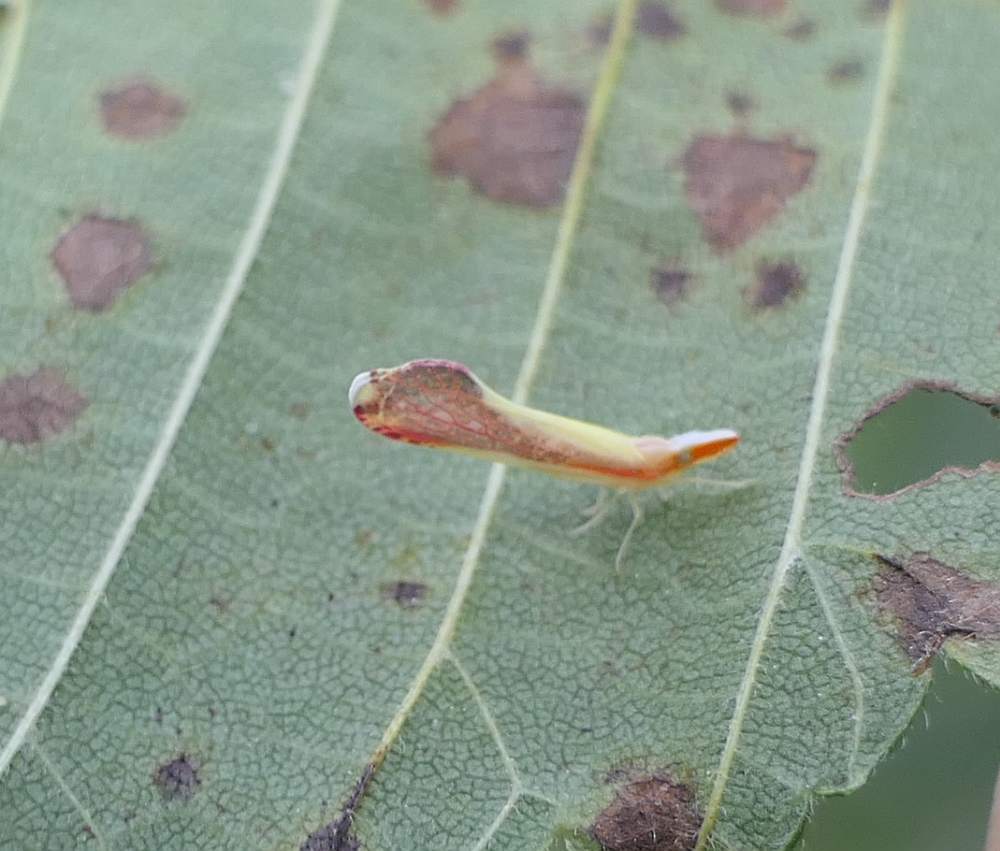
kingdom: Animalia
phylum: Arthropoda
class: Insecta
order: Hemiptera
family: Derbidae
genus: Shellenius
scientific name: Shellenius ballii
